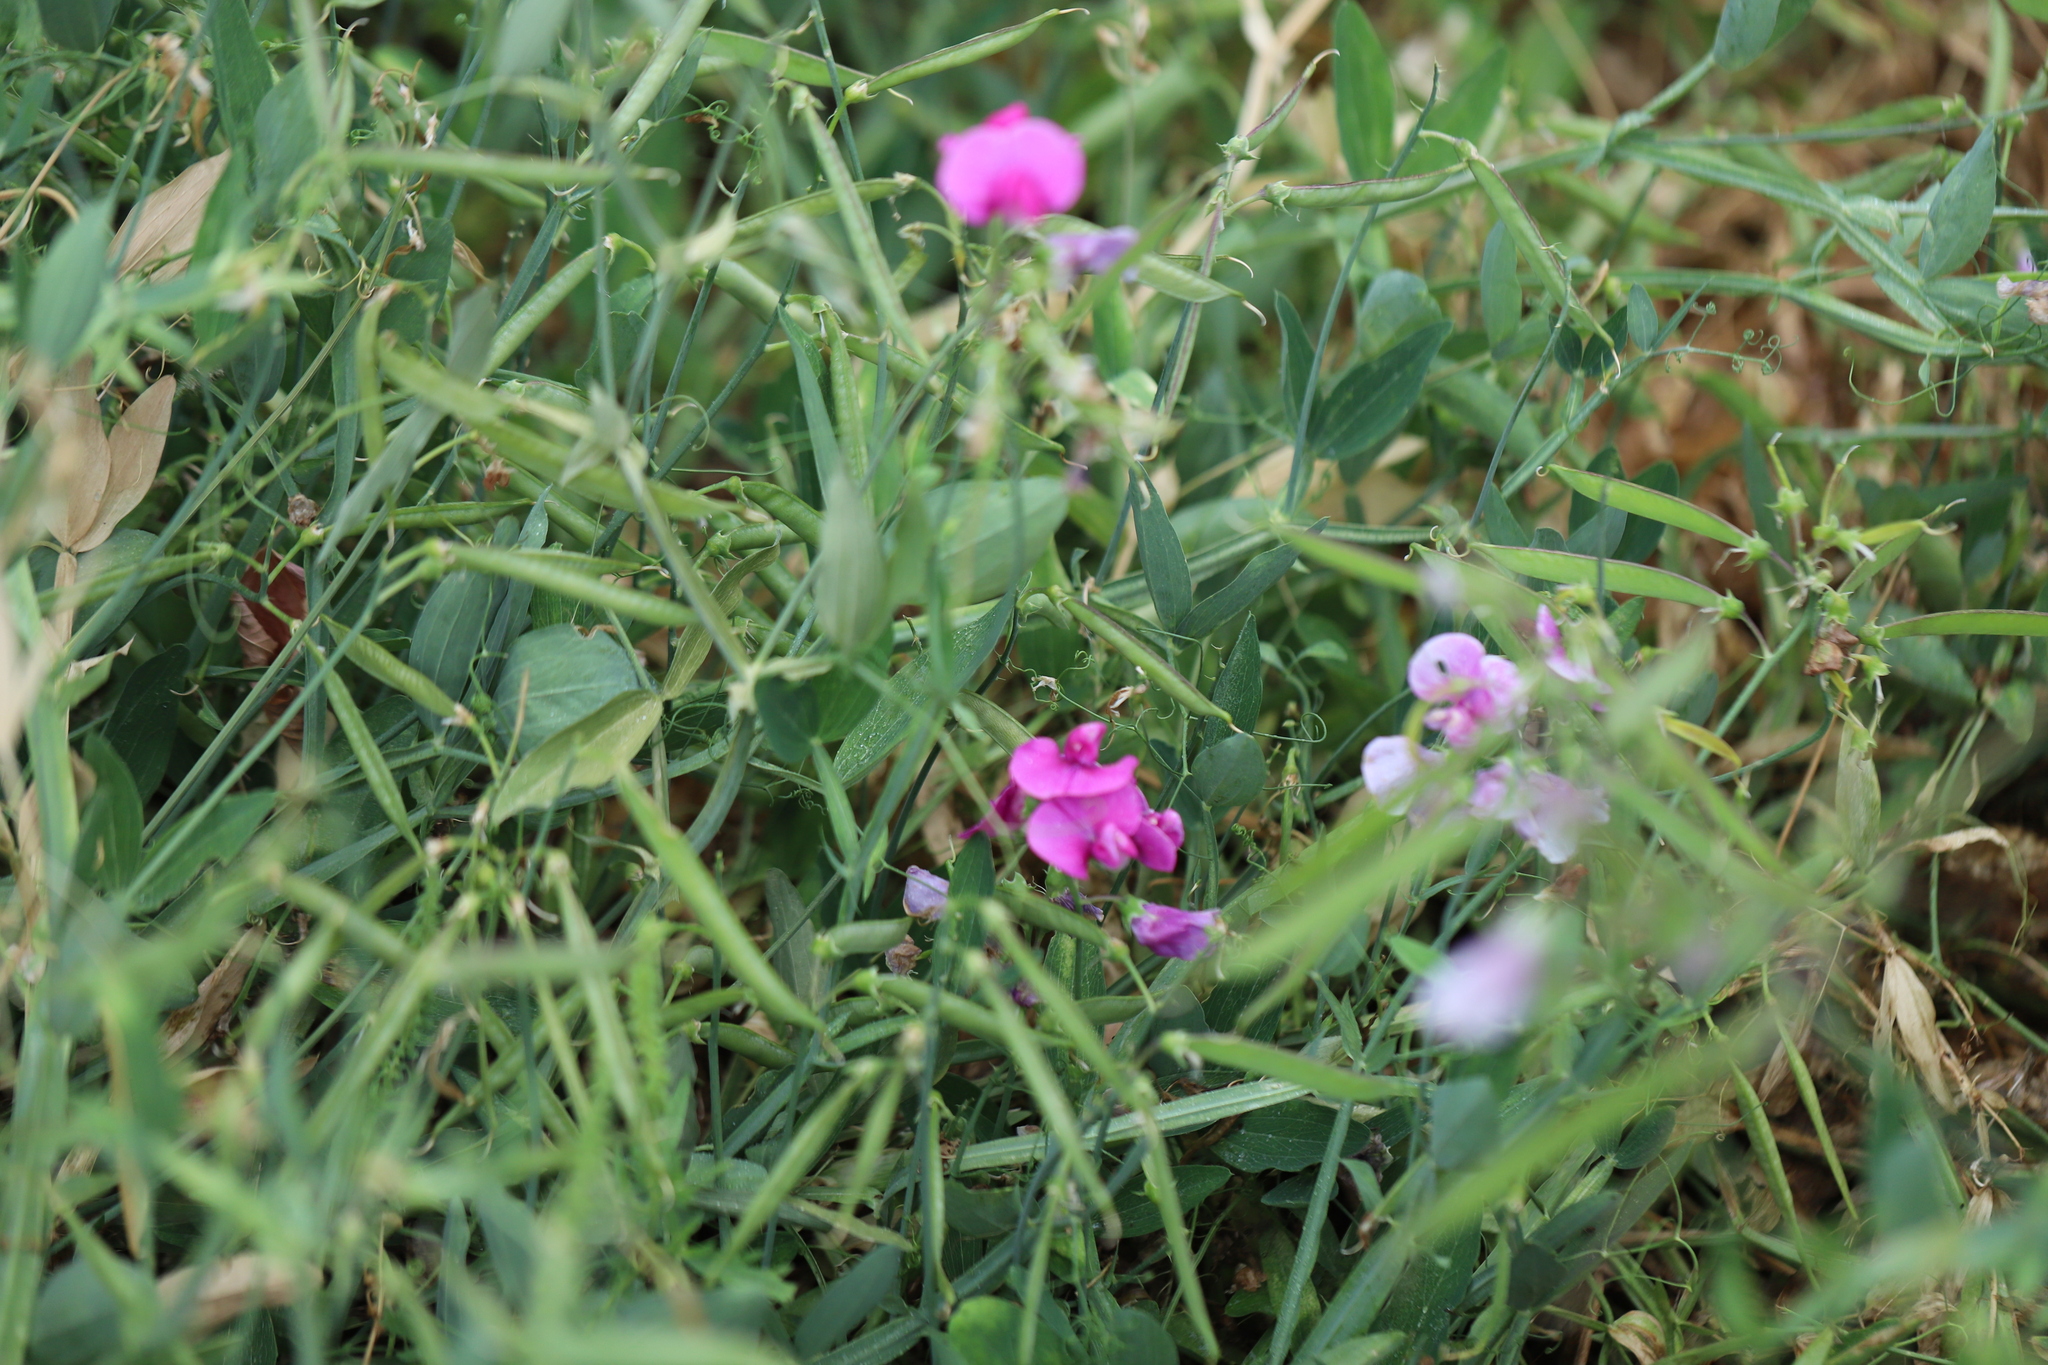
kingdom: Plantae
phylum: Tracheophyta
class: Magnoliopsida
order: Fabales
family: Fabaceae
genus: Lathyrus
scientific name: Lathyrus latifolius
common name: Perennial pea
